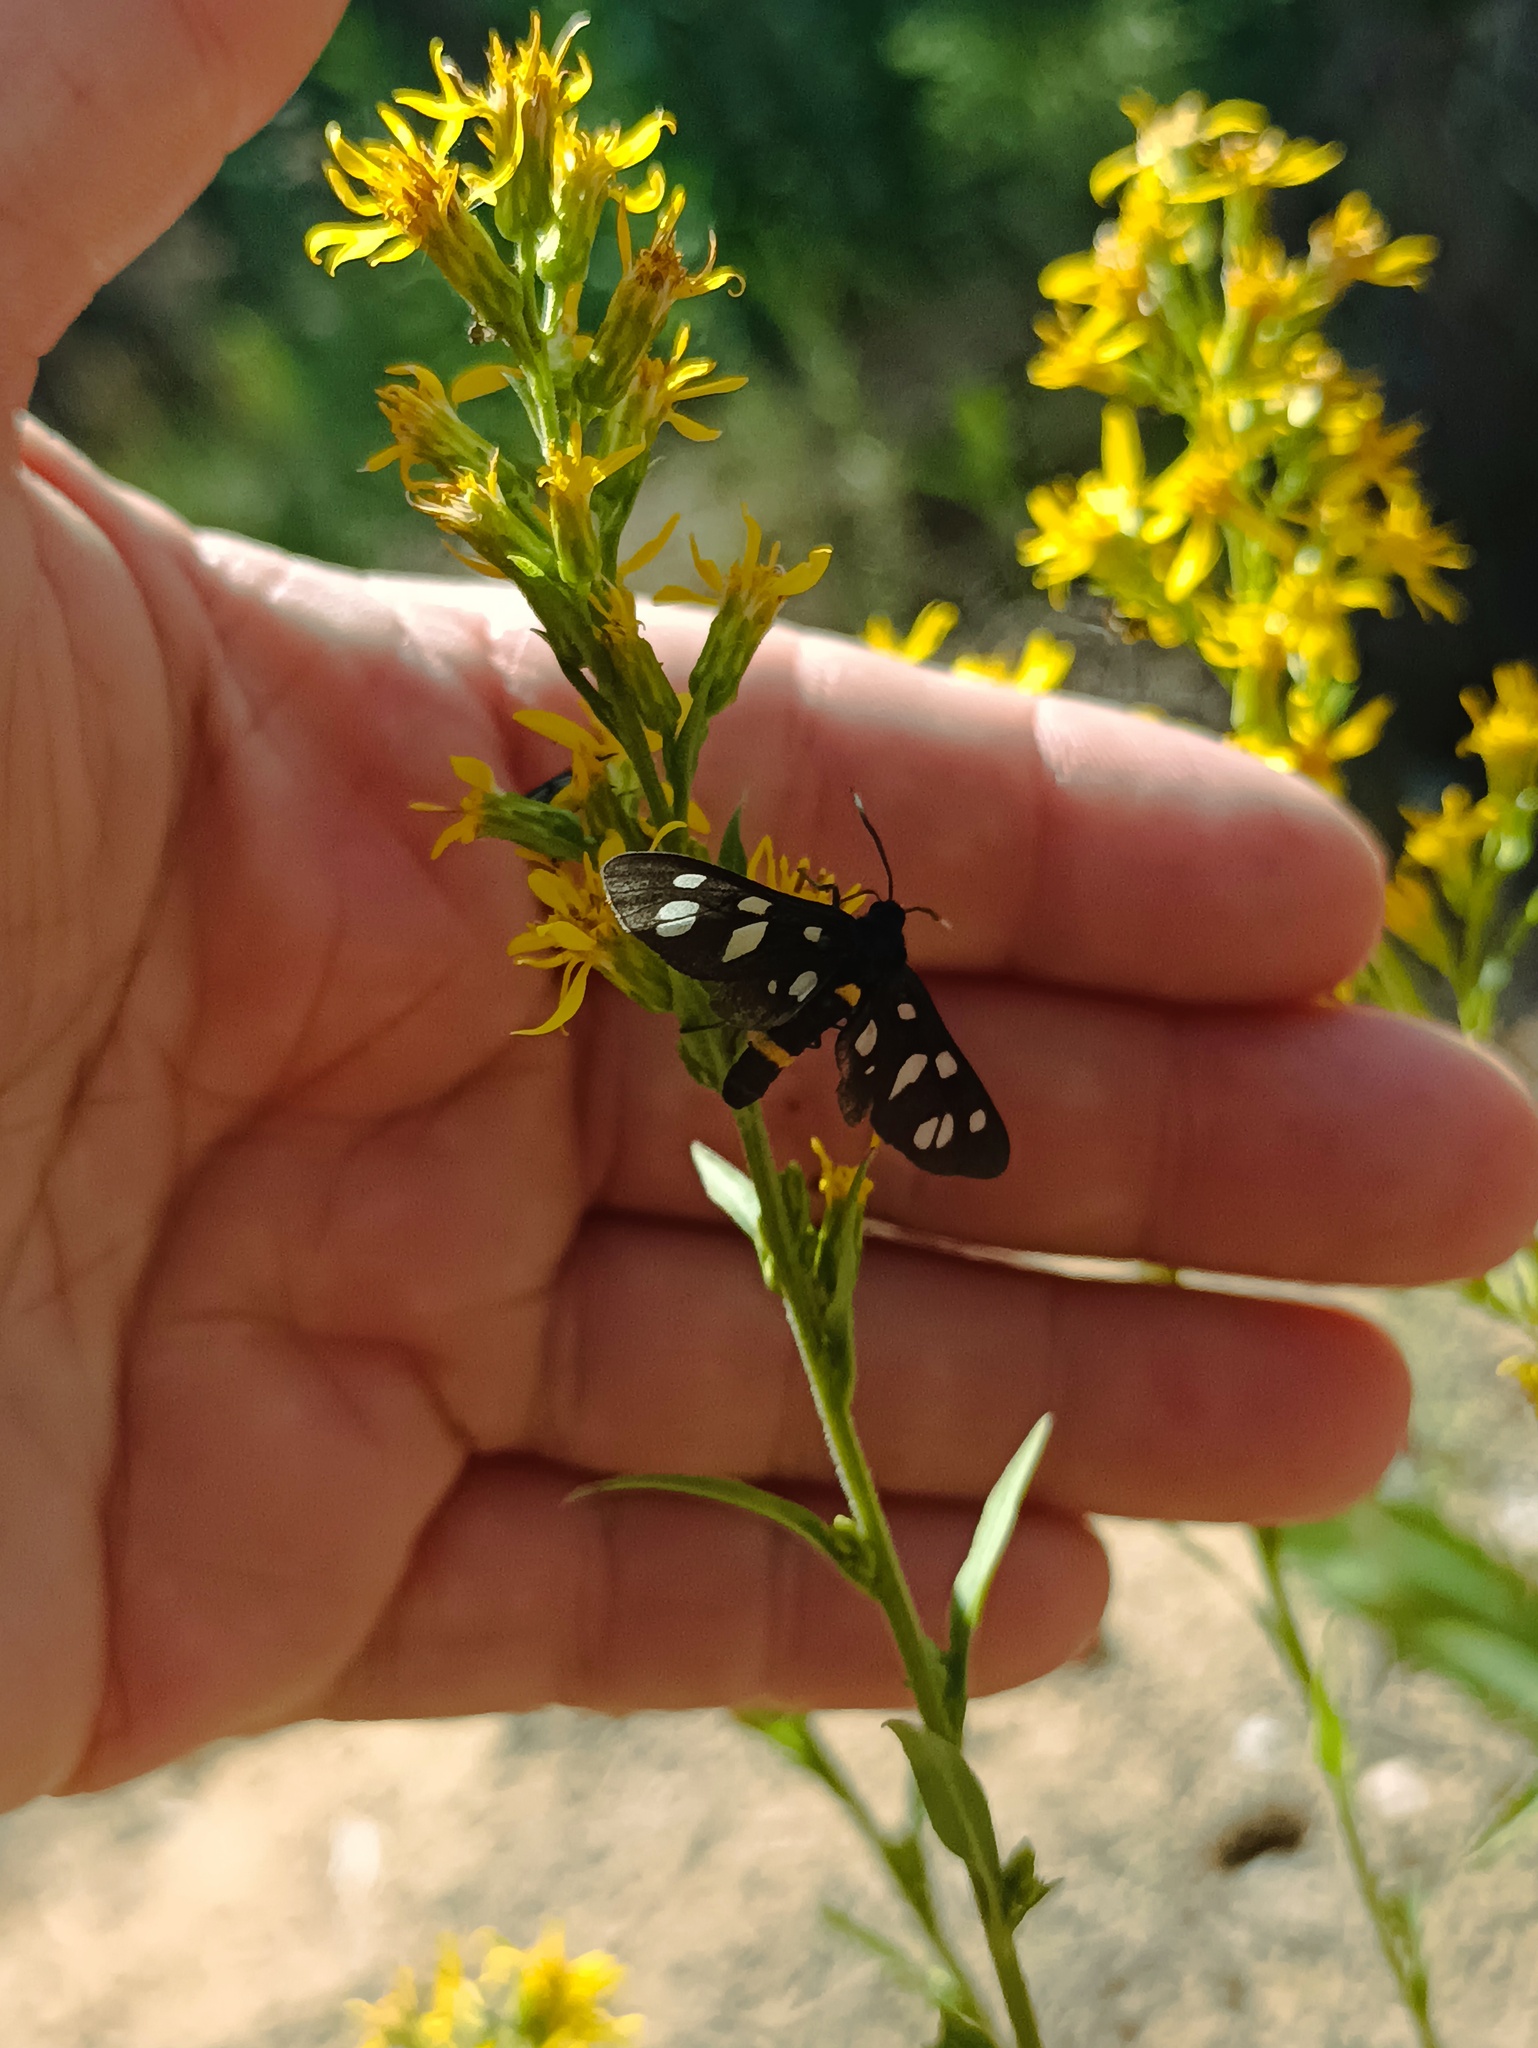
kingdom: Animalia
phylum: Arthropoda
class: Insecta
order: Lepidoptera
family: Erebidae
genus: Amata
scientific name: Amata nigricornis
